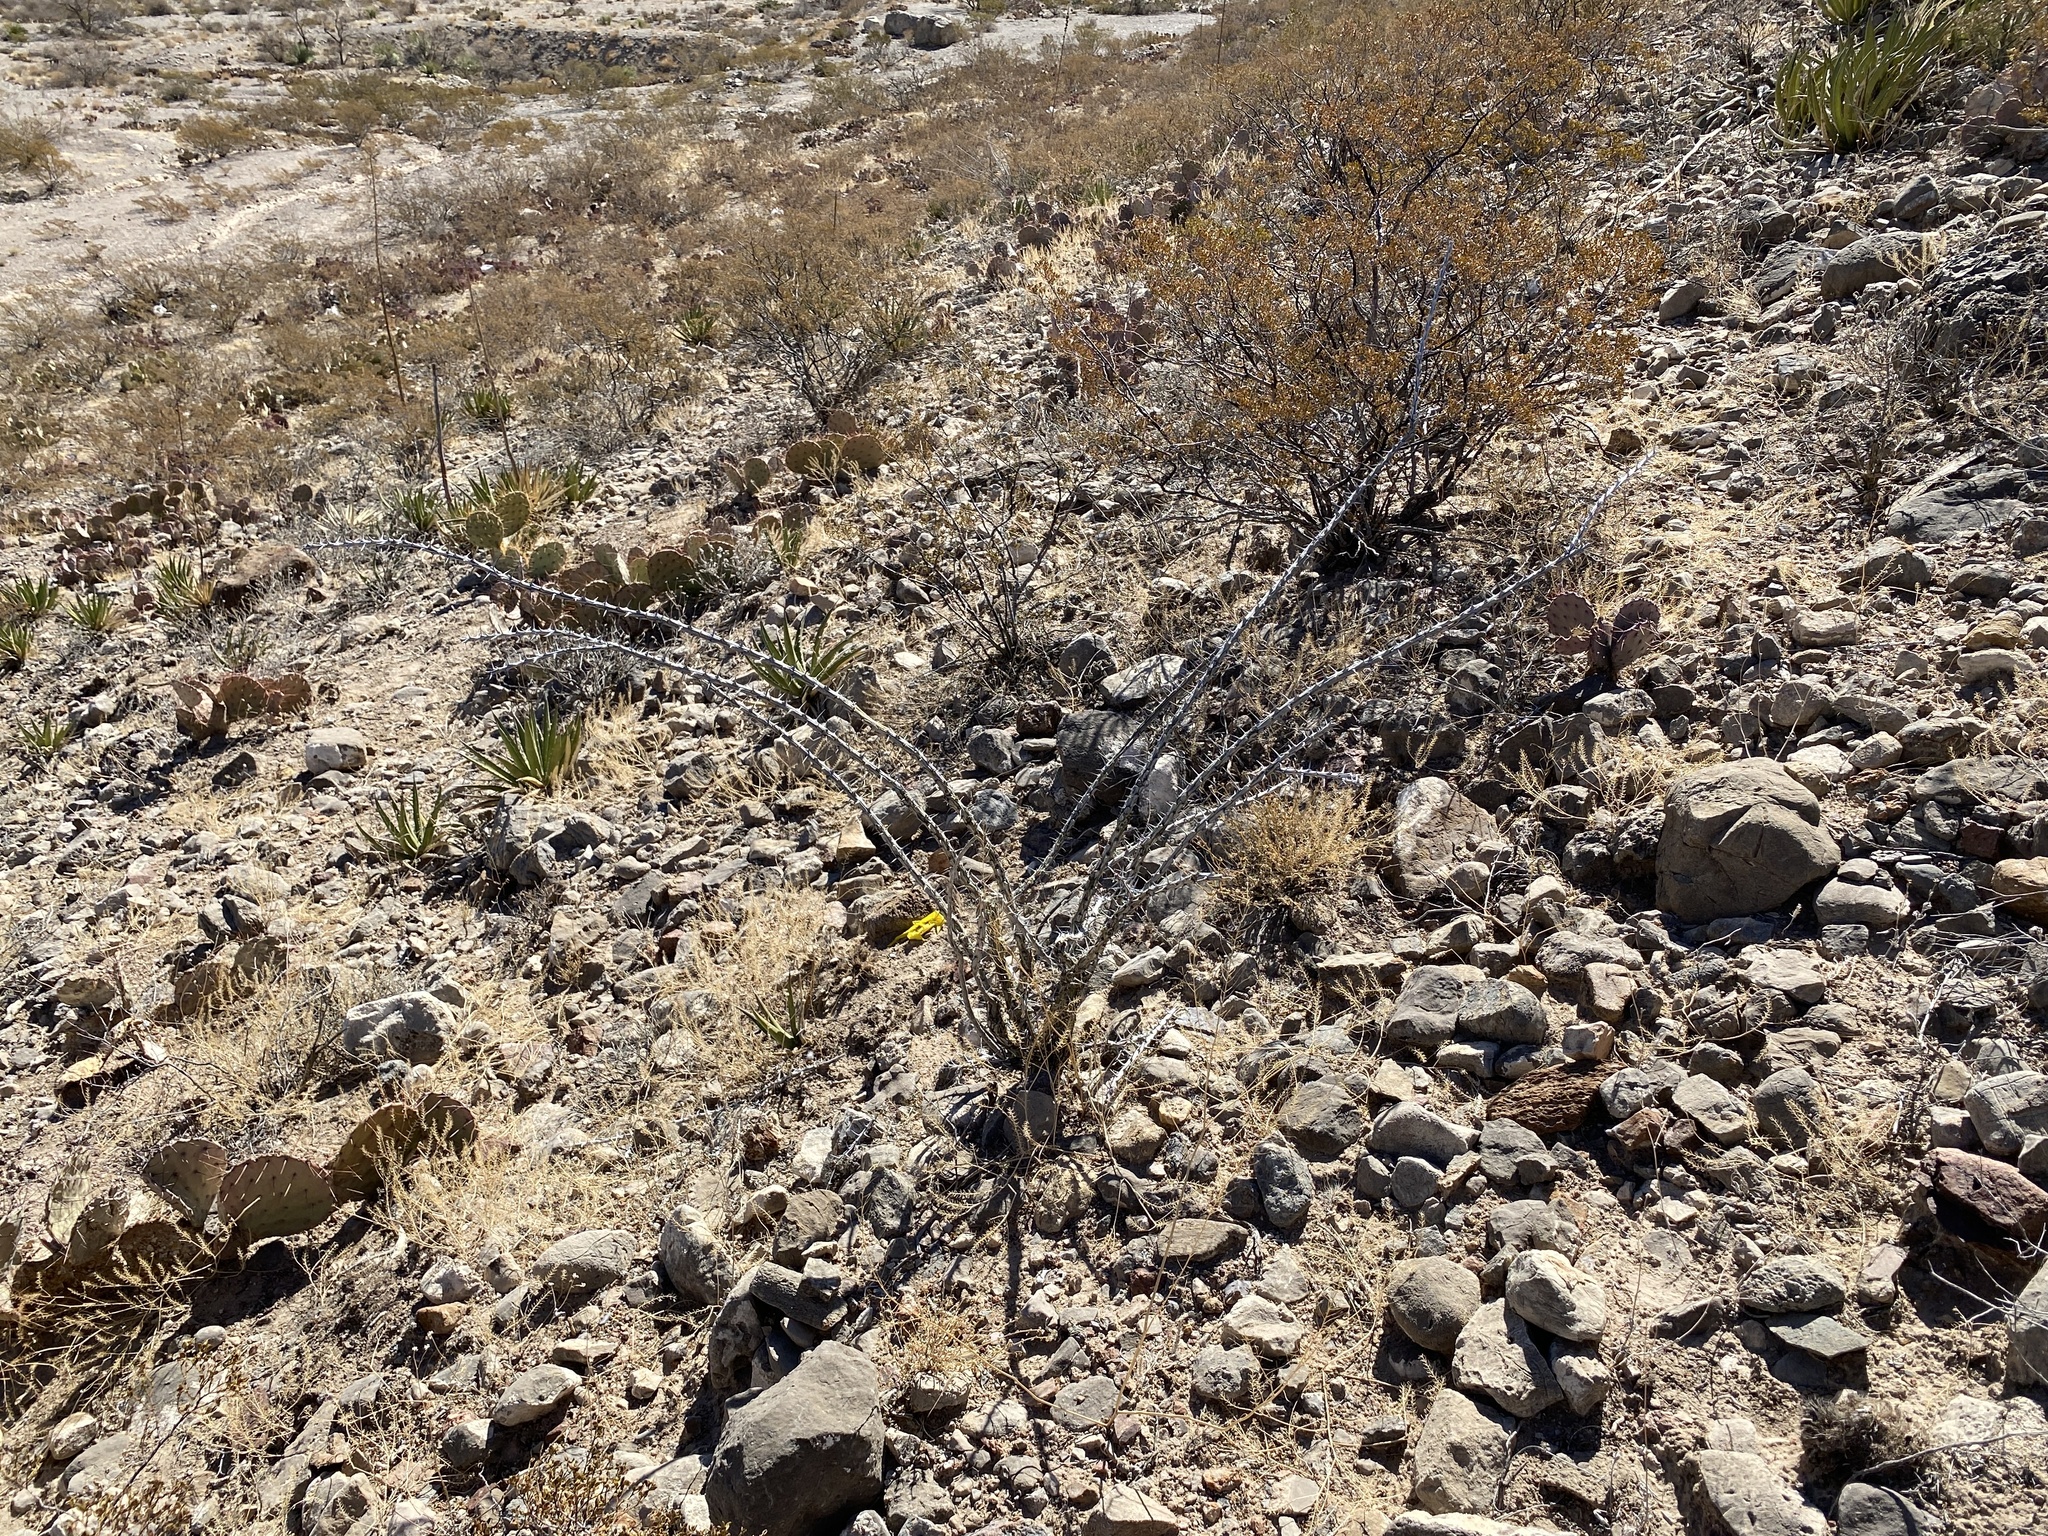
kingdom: Plantae
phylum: Tracheophyta
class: Magnoliopsida
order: Ericales
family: Fouquieriaceae
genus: Fouquieria
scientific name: Fouquieria splendens
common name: Vine-cactus
